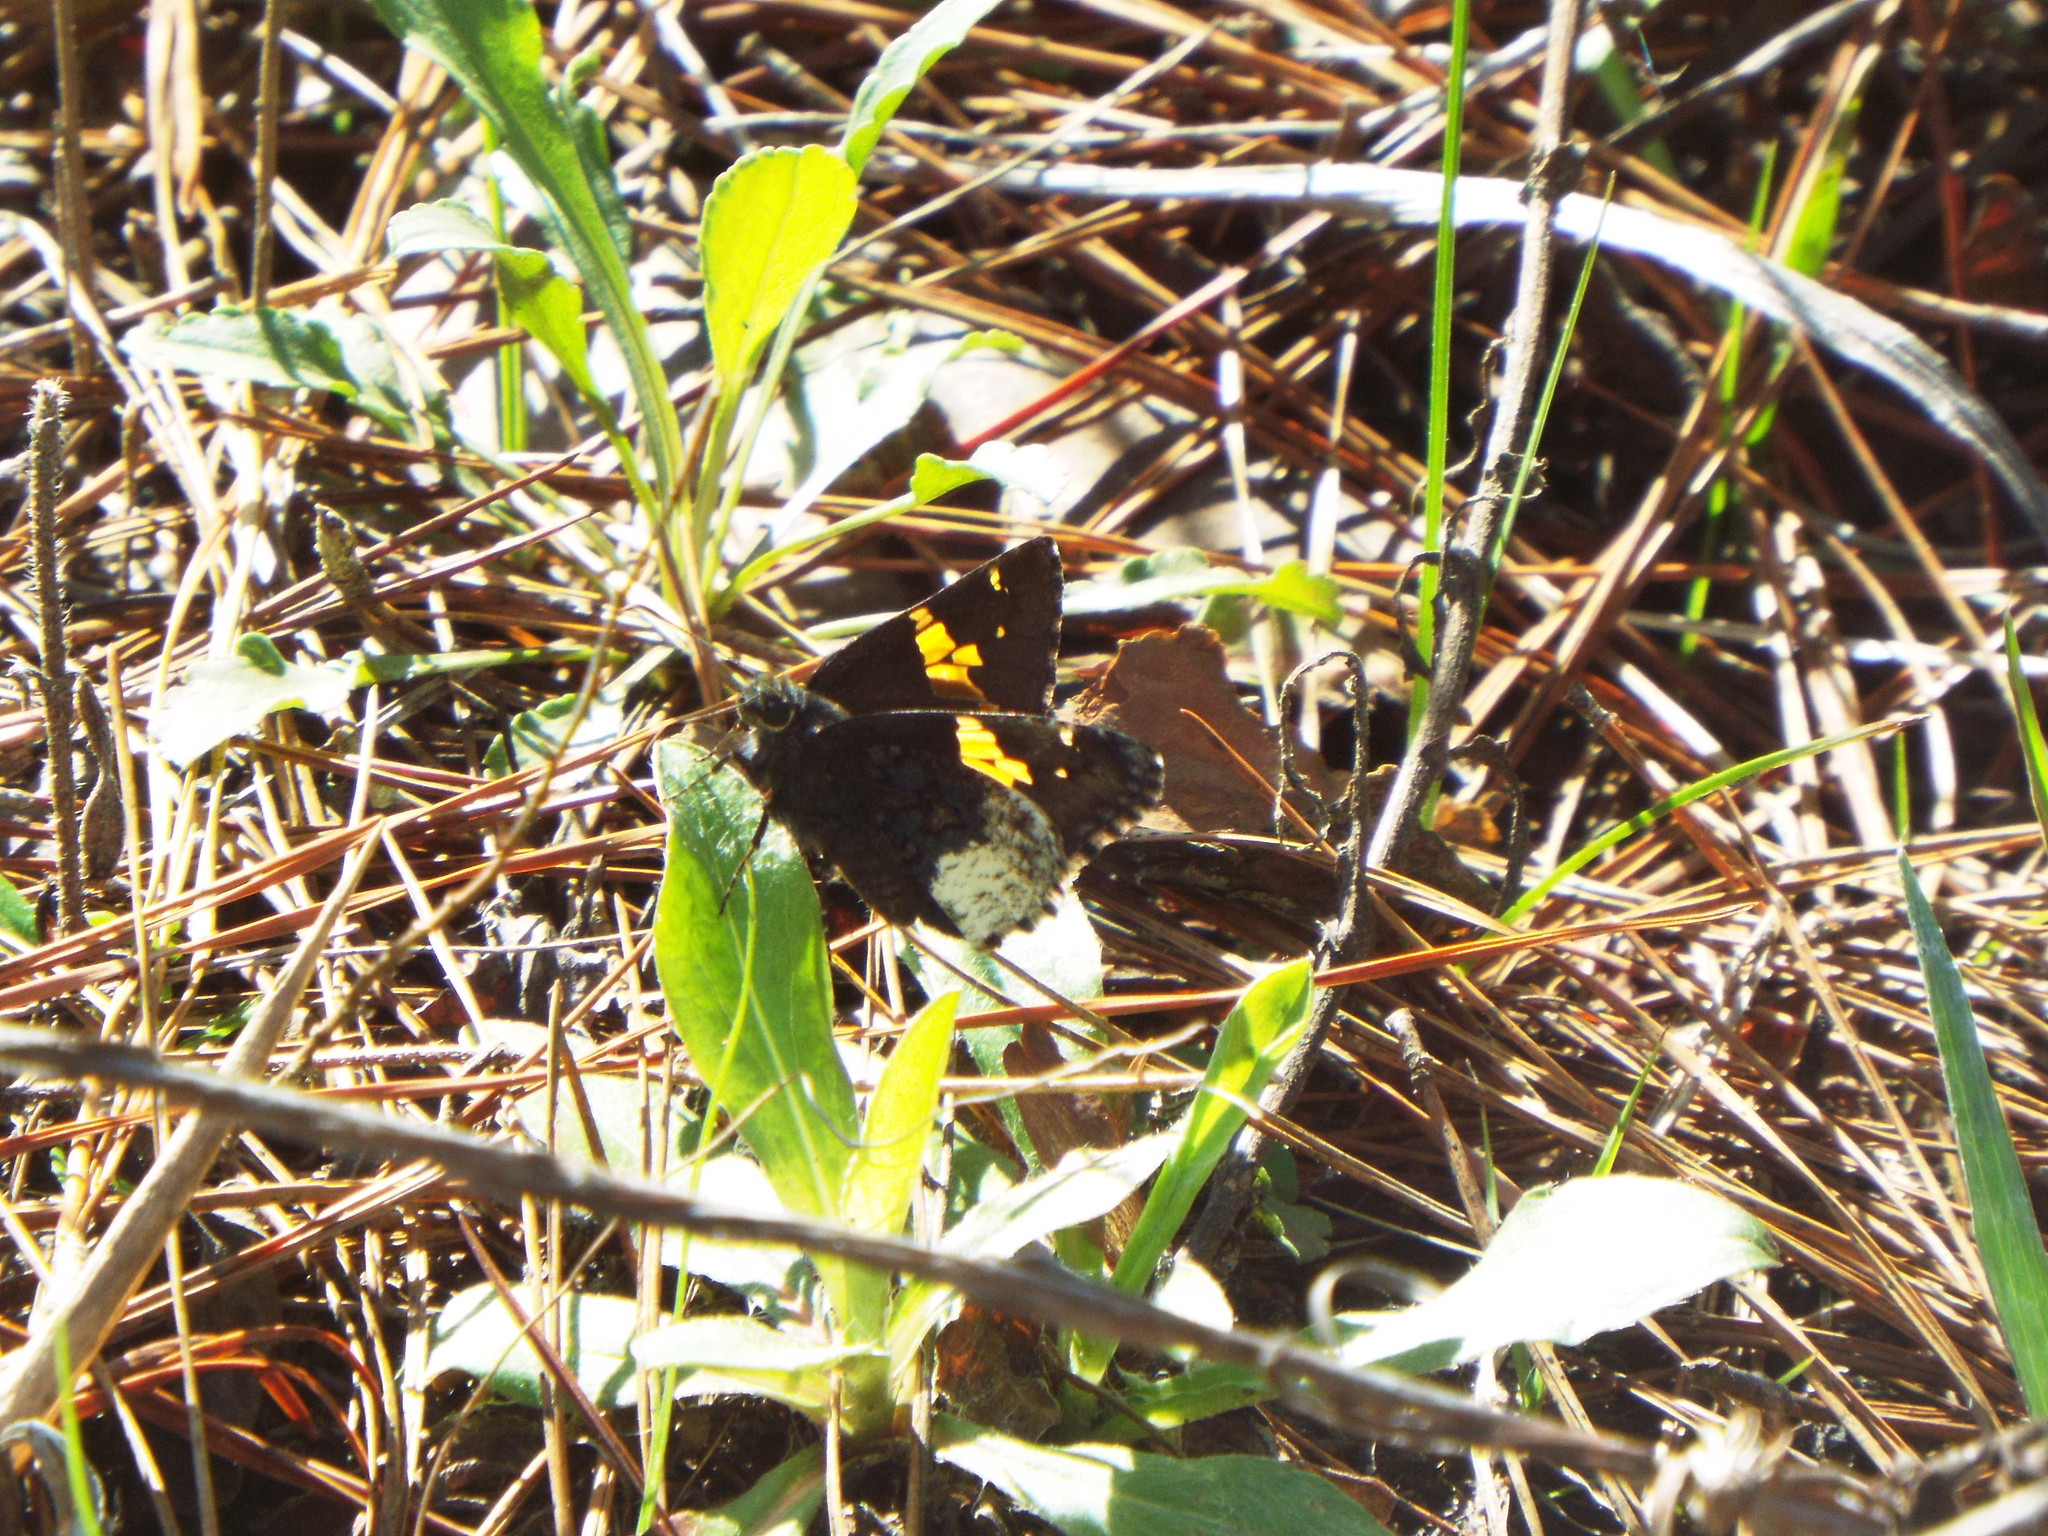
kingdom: Animalia
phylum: Arthropoda
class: Insecta
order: Lepidoptera
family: Hesperiidae
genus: Thorybes
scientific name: Thorybes lyciades
